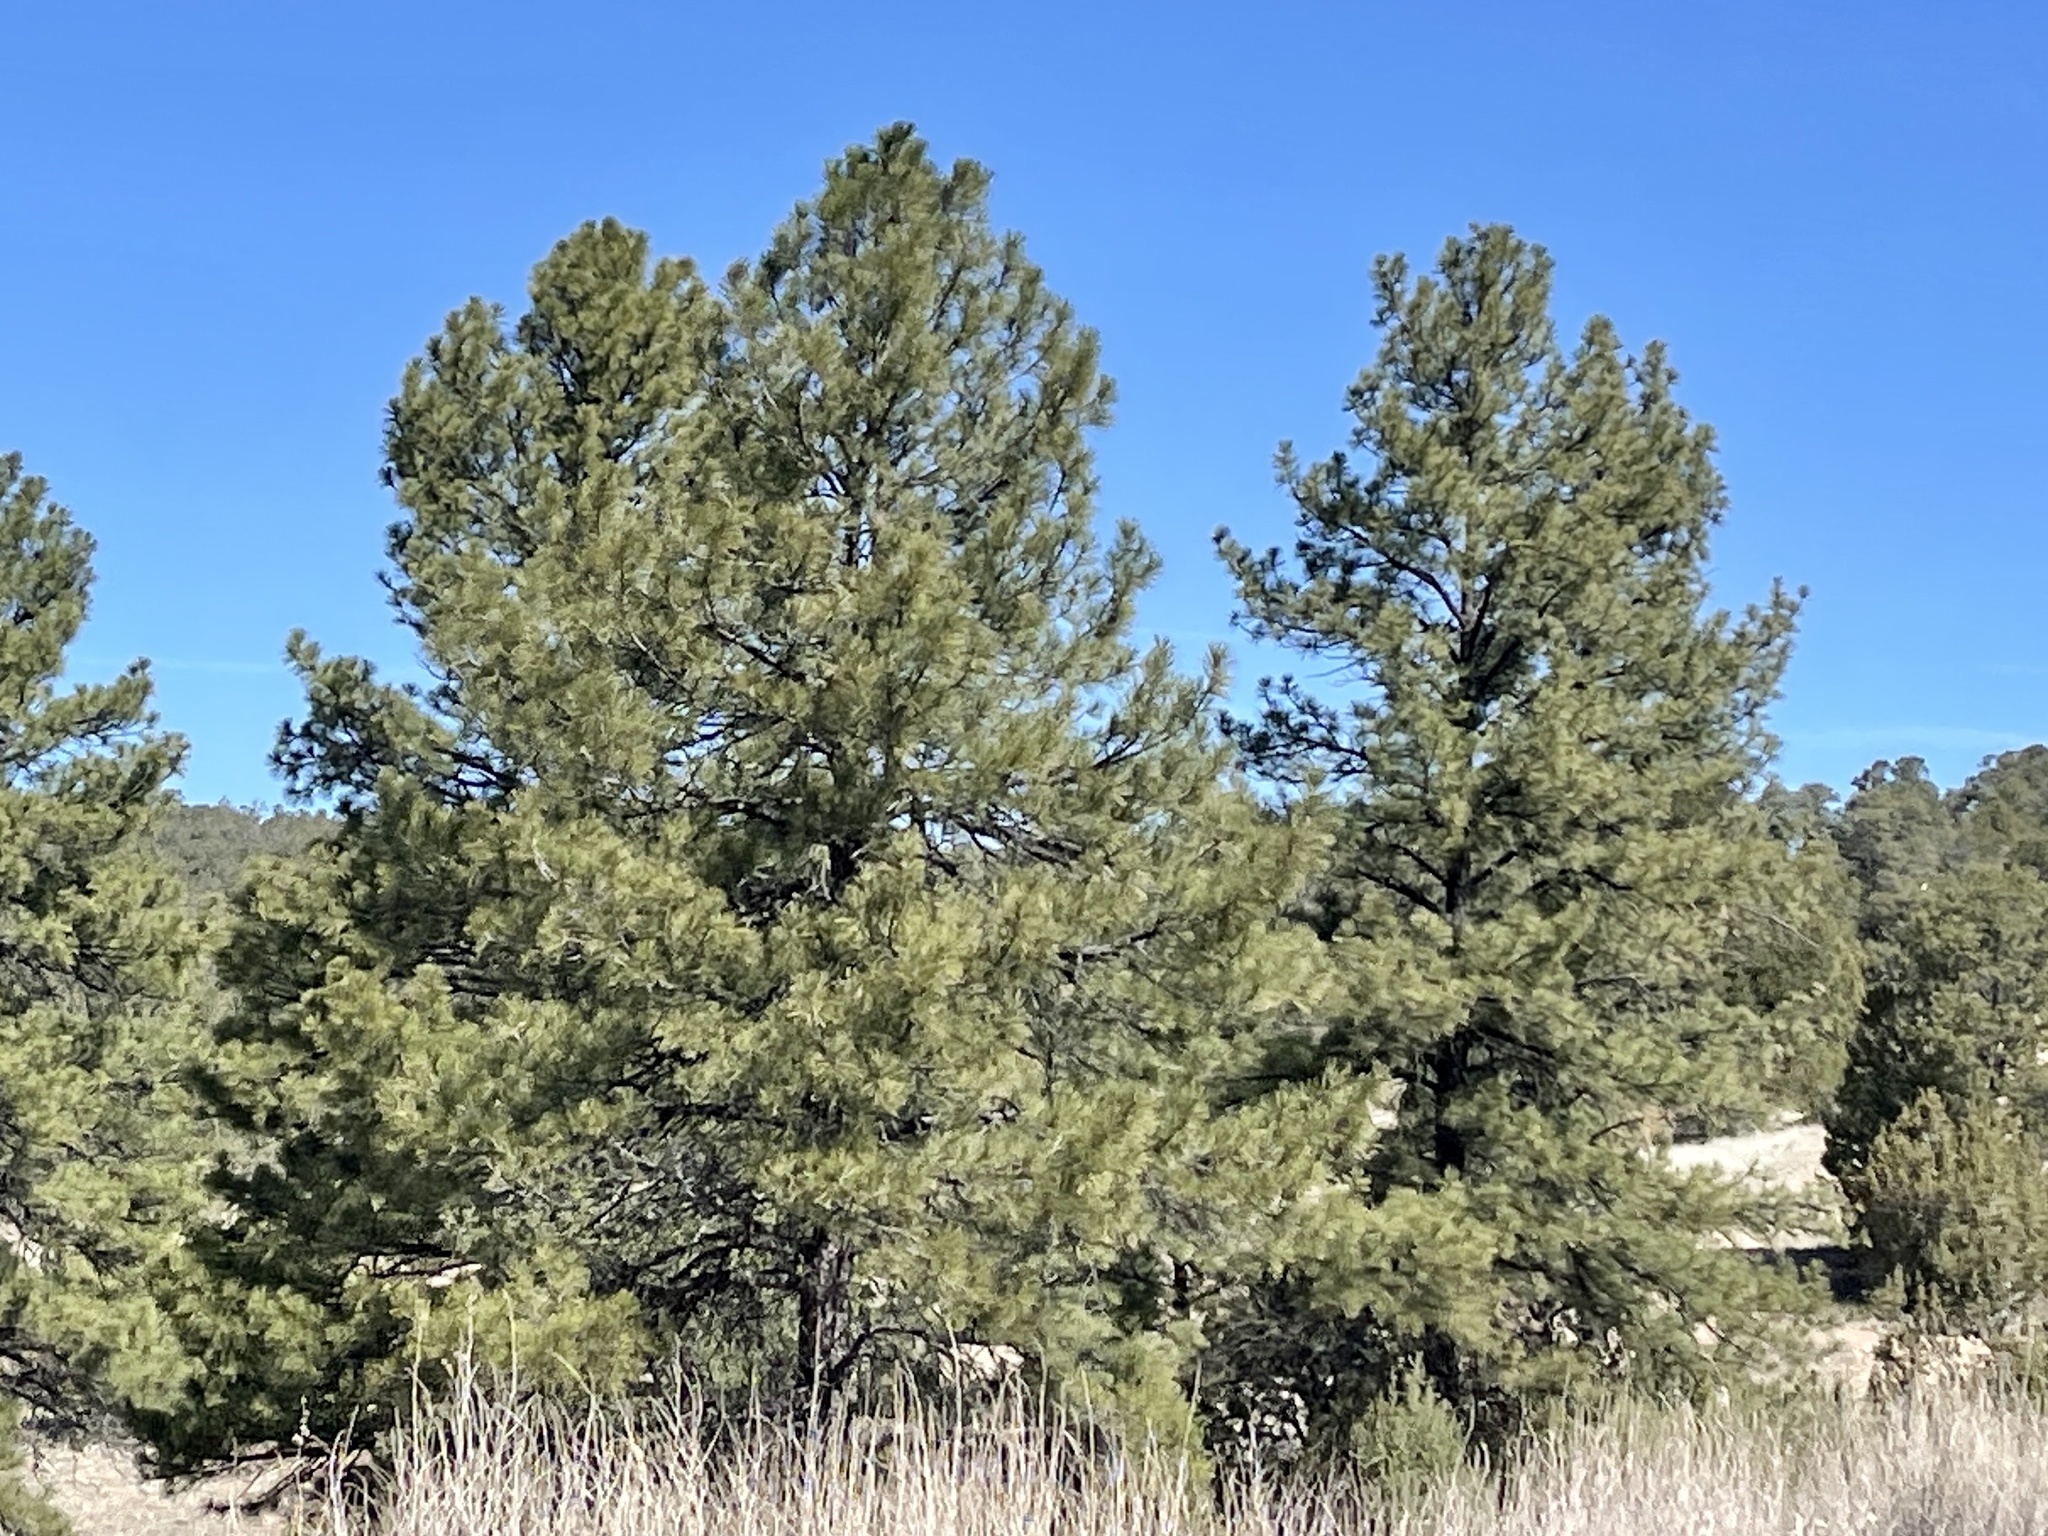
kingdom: Plantae
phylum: Tracheophyta
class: Pinopsida
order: Pinales
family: Pinaceae
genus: Pinus
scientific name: Pinus ponderosa
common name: Western yellow-pine
